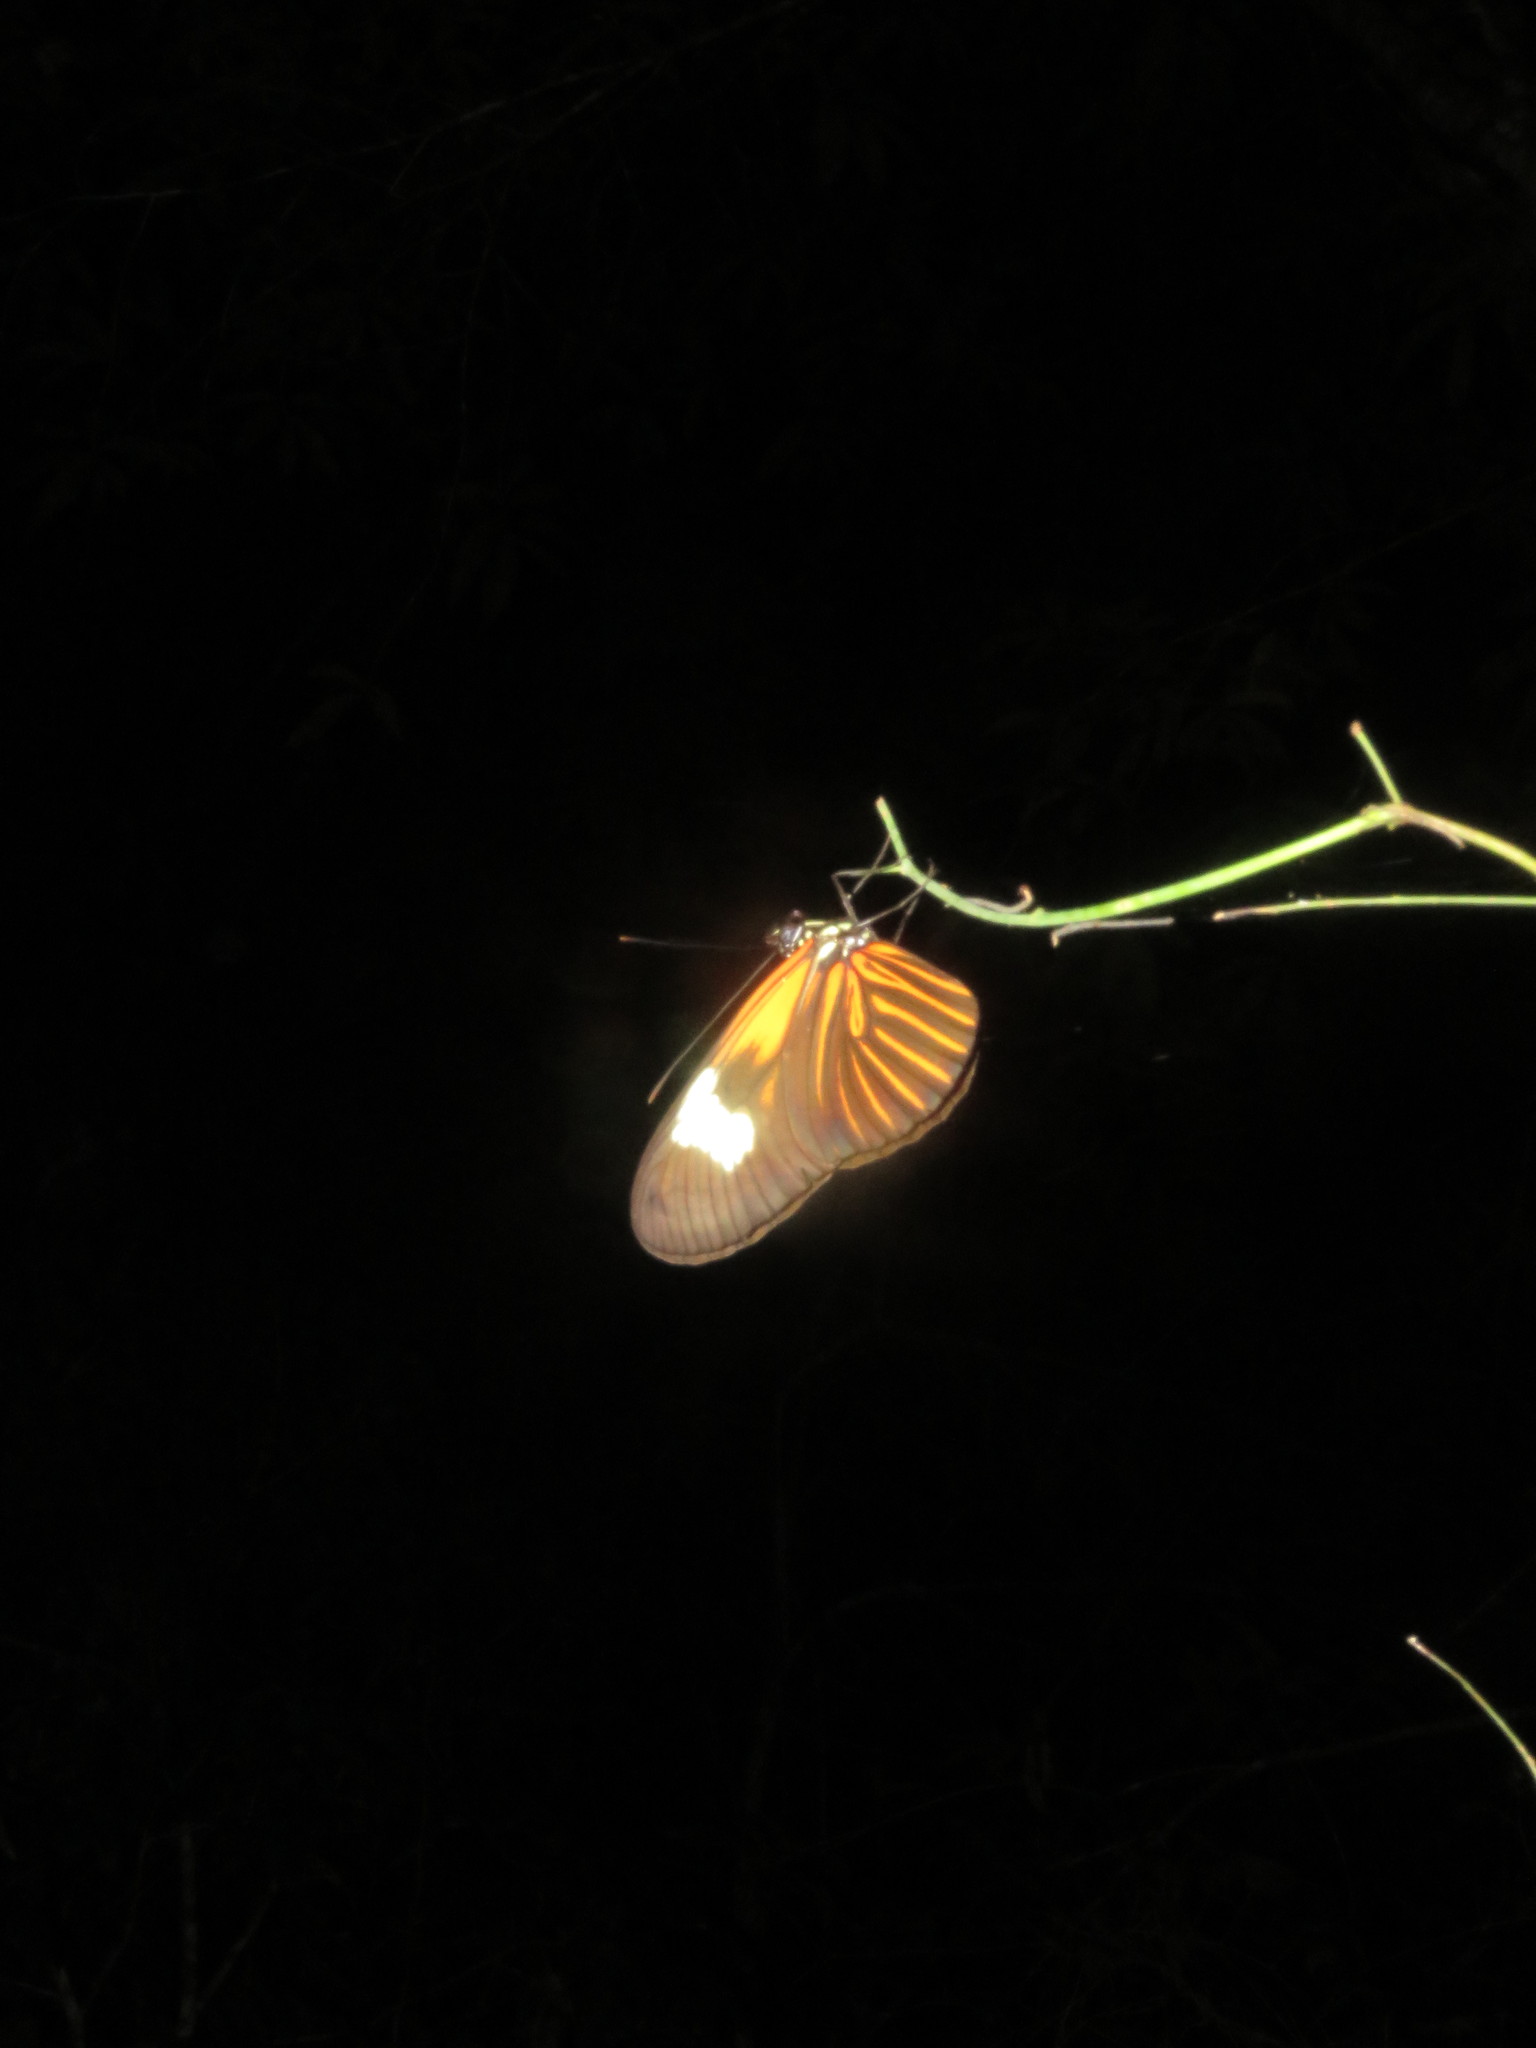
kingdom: Animalia
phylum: Arthropoda
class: Insecta
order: Lepidoptera
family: Nymphalidae
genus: Heliconius
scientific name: Heliconius erato
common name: Common patch longwing
